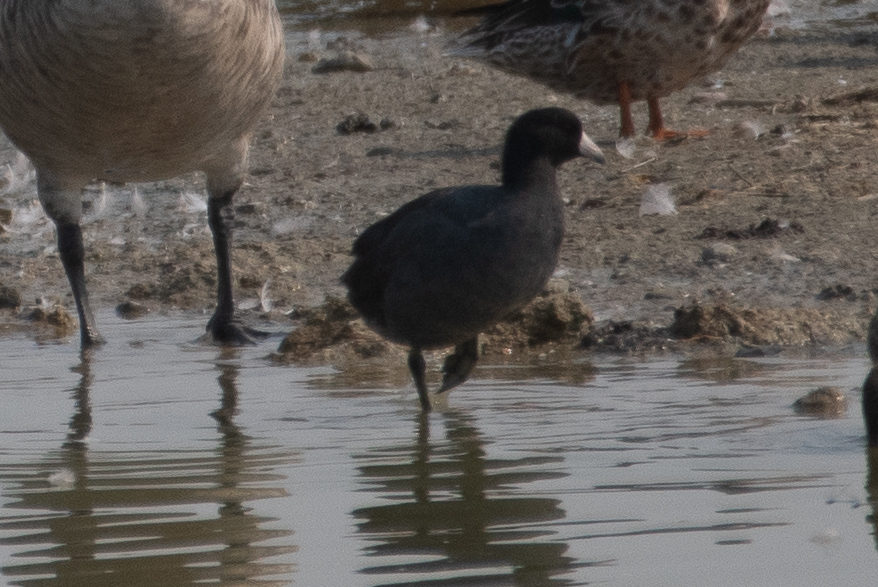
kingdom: Animalia
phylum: Chordata
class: Aves
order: Gruiformes
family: Rallidae
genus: Fulica
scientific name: Fulica americana
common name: American coot
